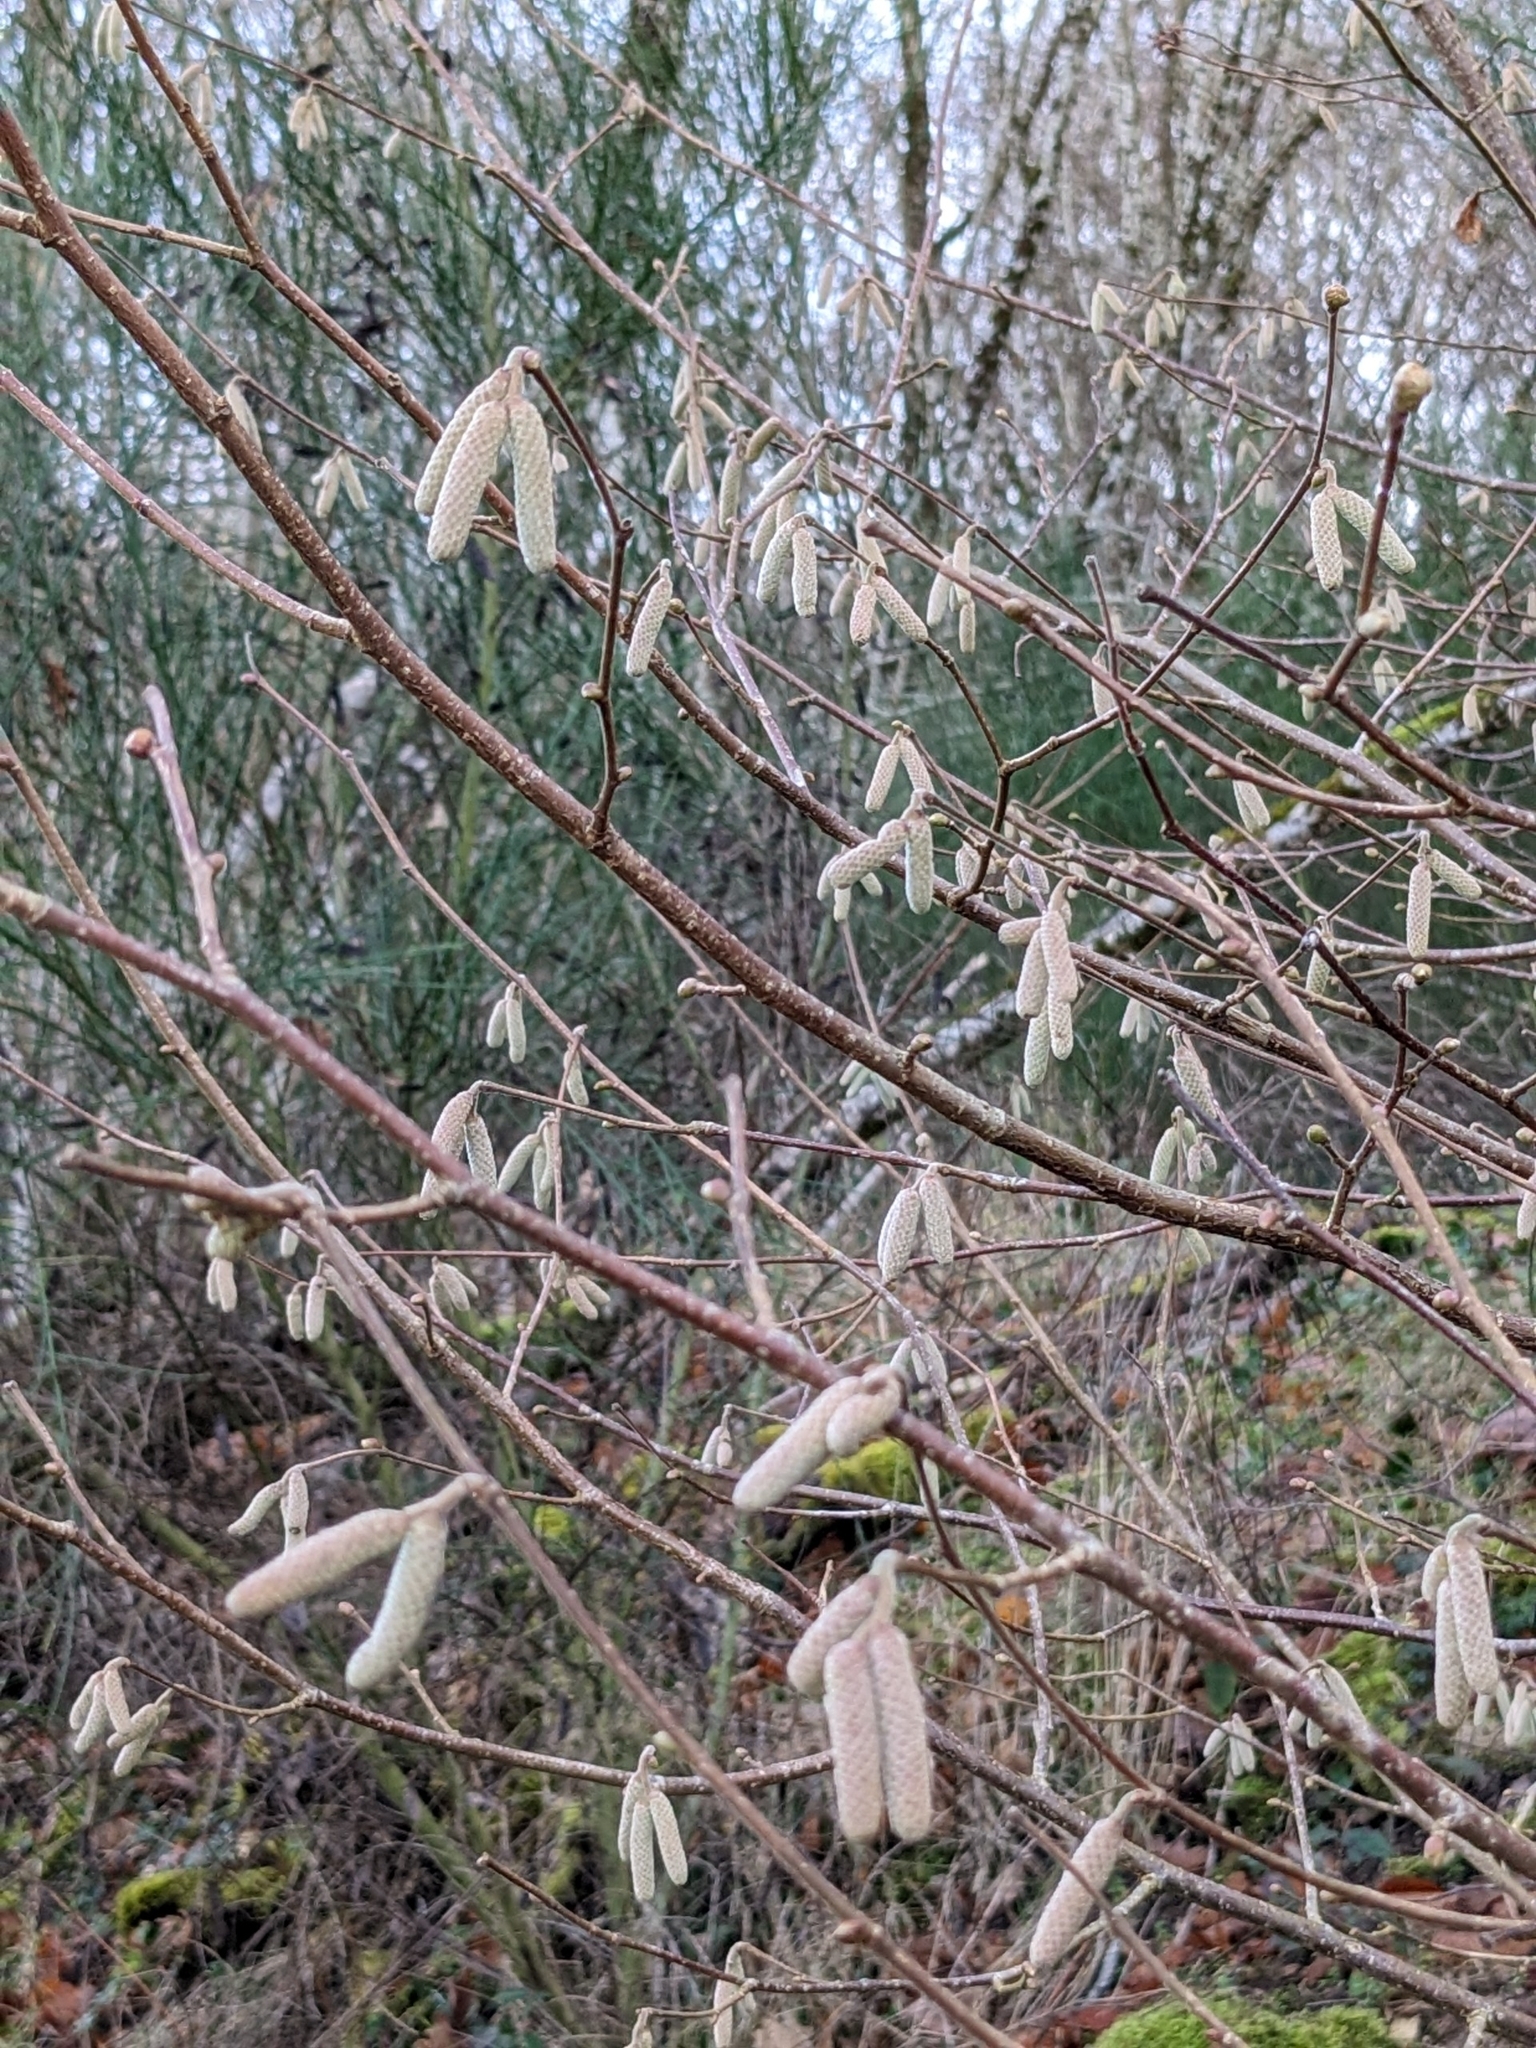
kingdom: Plantae
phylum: Tracheophyta
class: Magnoliopsida
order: Fagales
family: Betulaceae
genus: Corylus
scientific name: Corylus avellana
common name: European hazel
